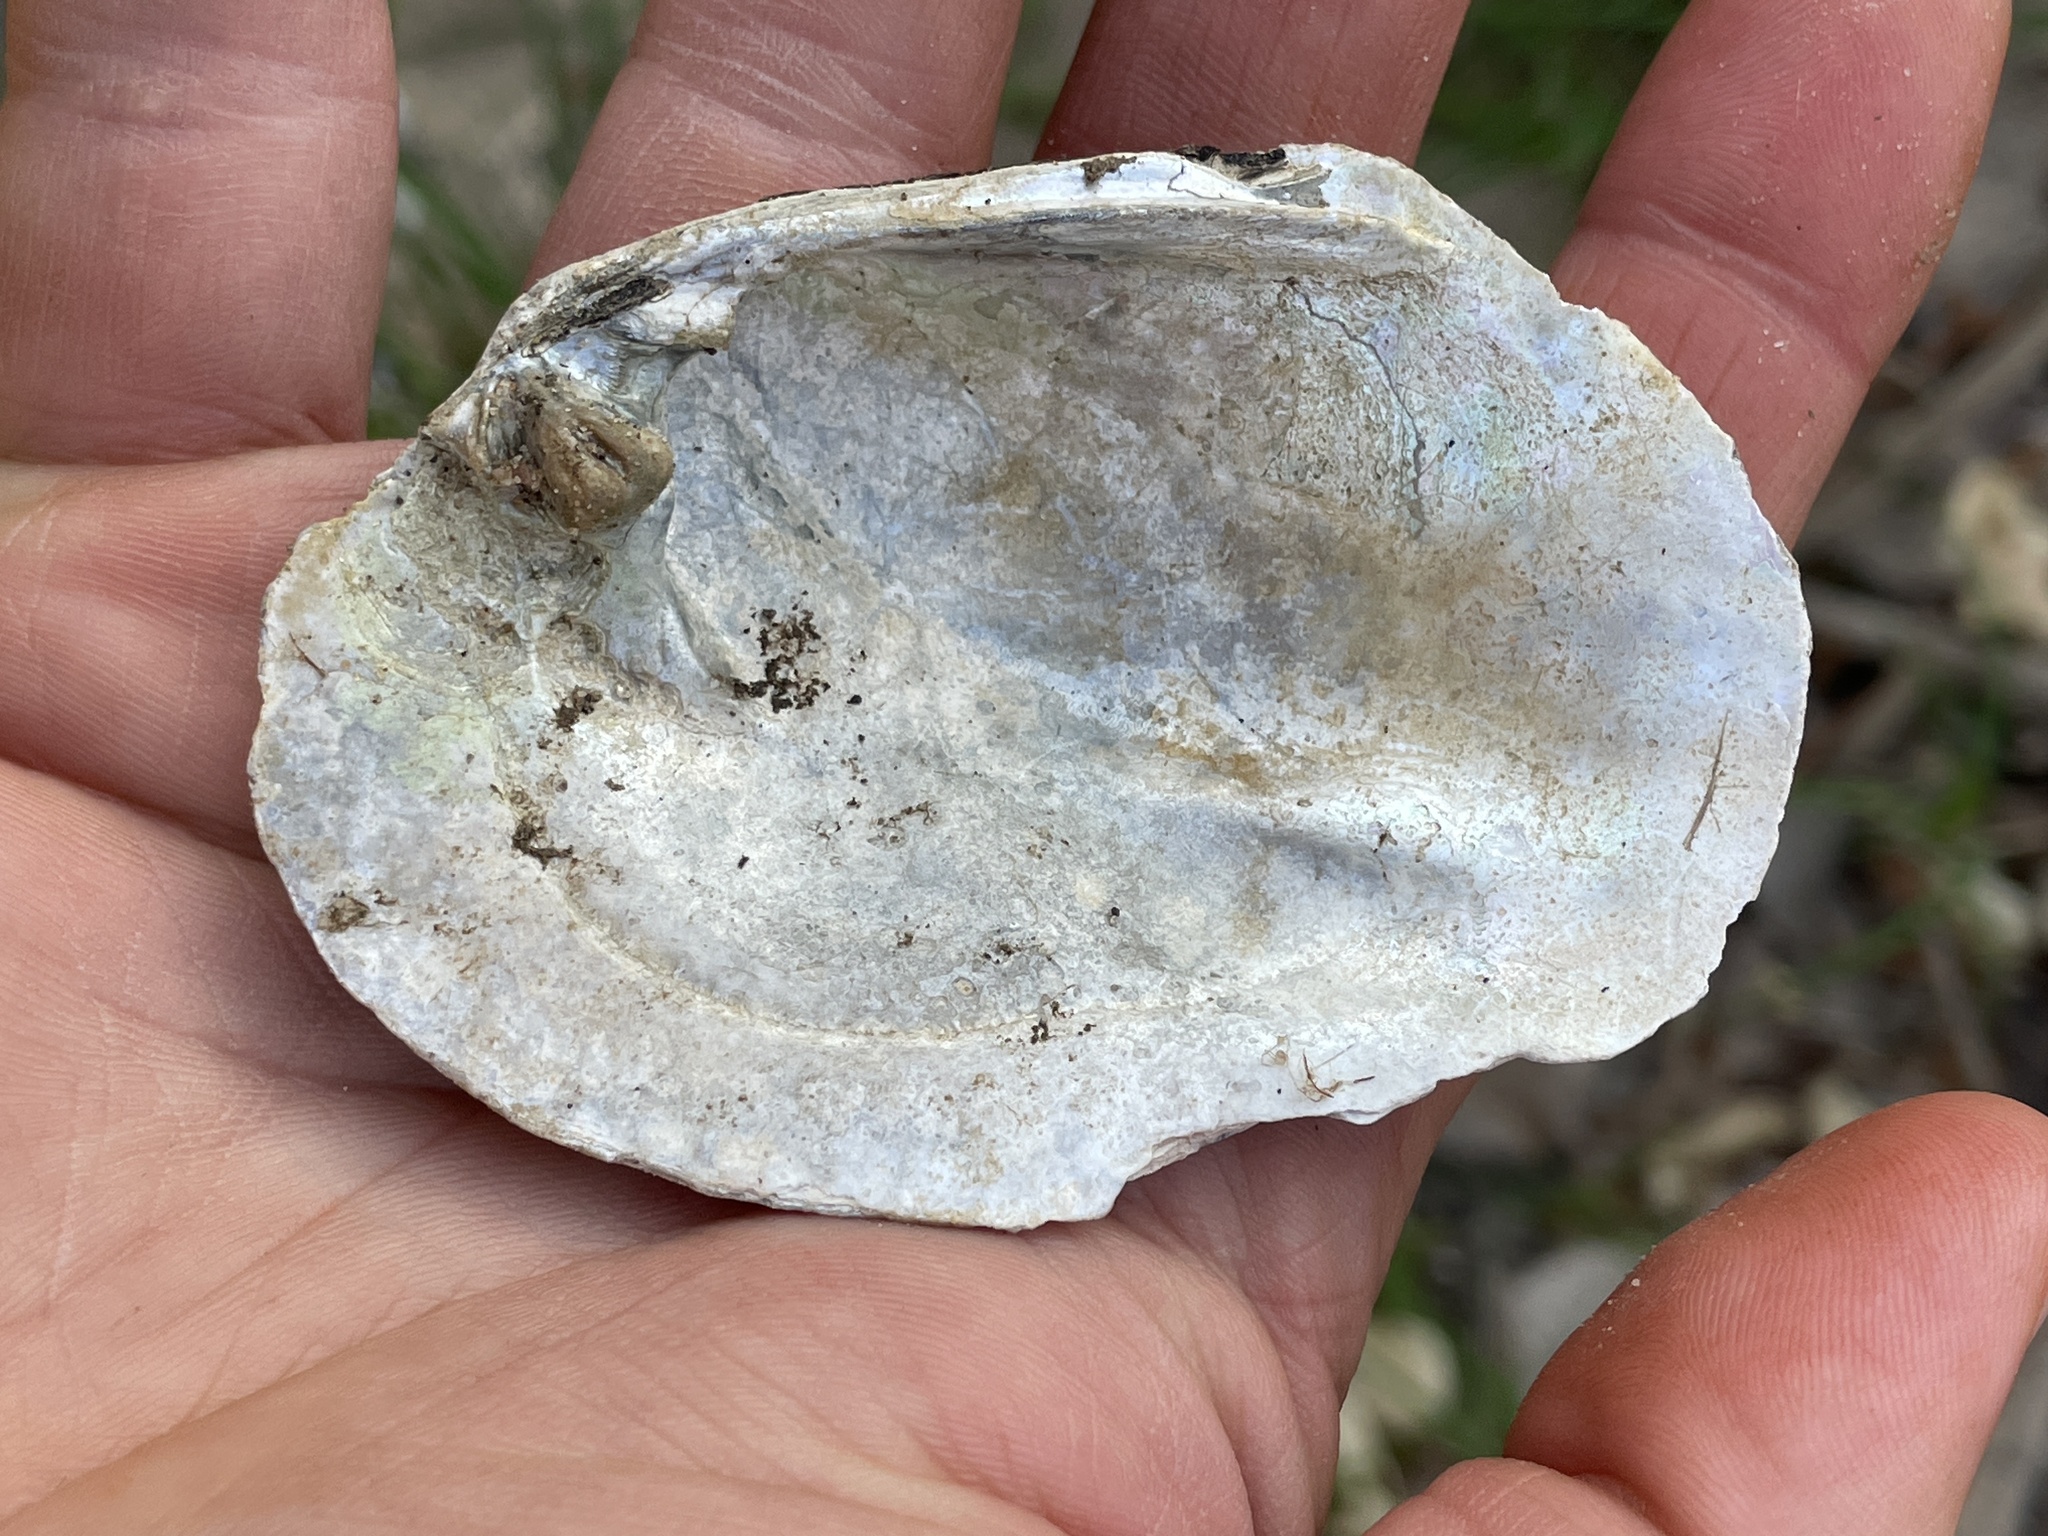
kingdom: Animalia
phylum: Mollusca
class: Bivalvia
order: Unionida
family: Unionidae
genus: Amblema
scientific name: Amblema plicata
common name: Threeridge
